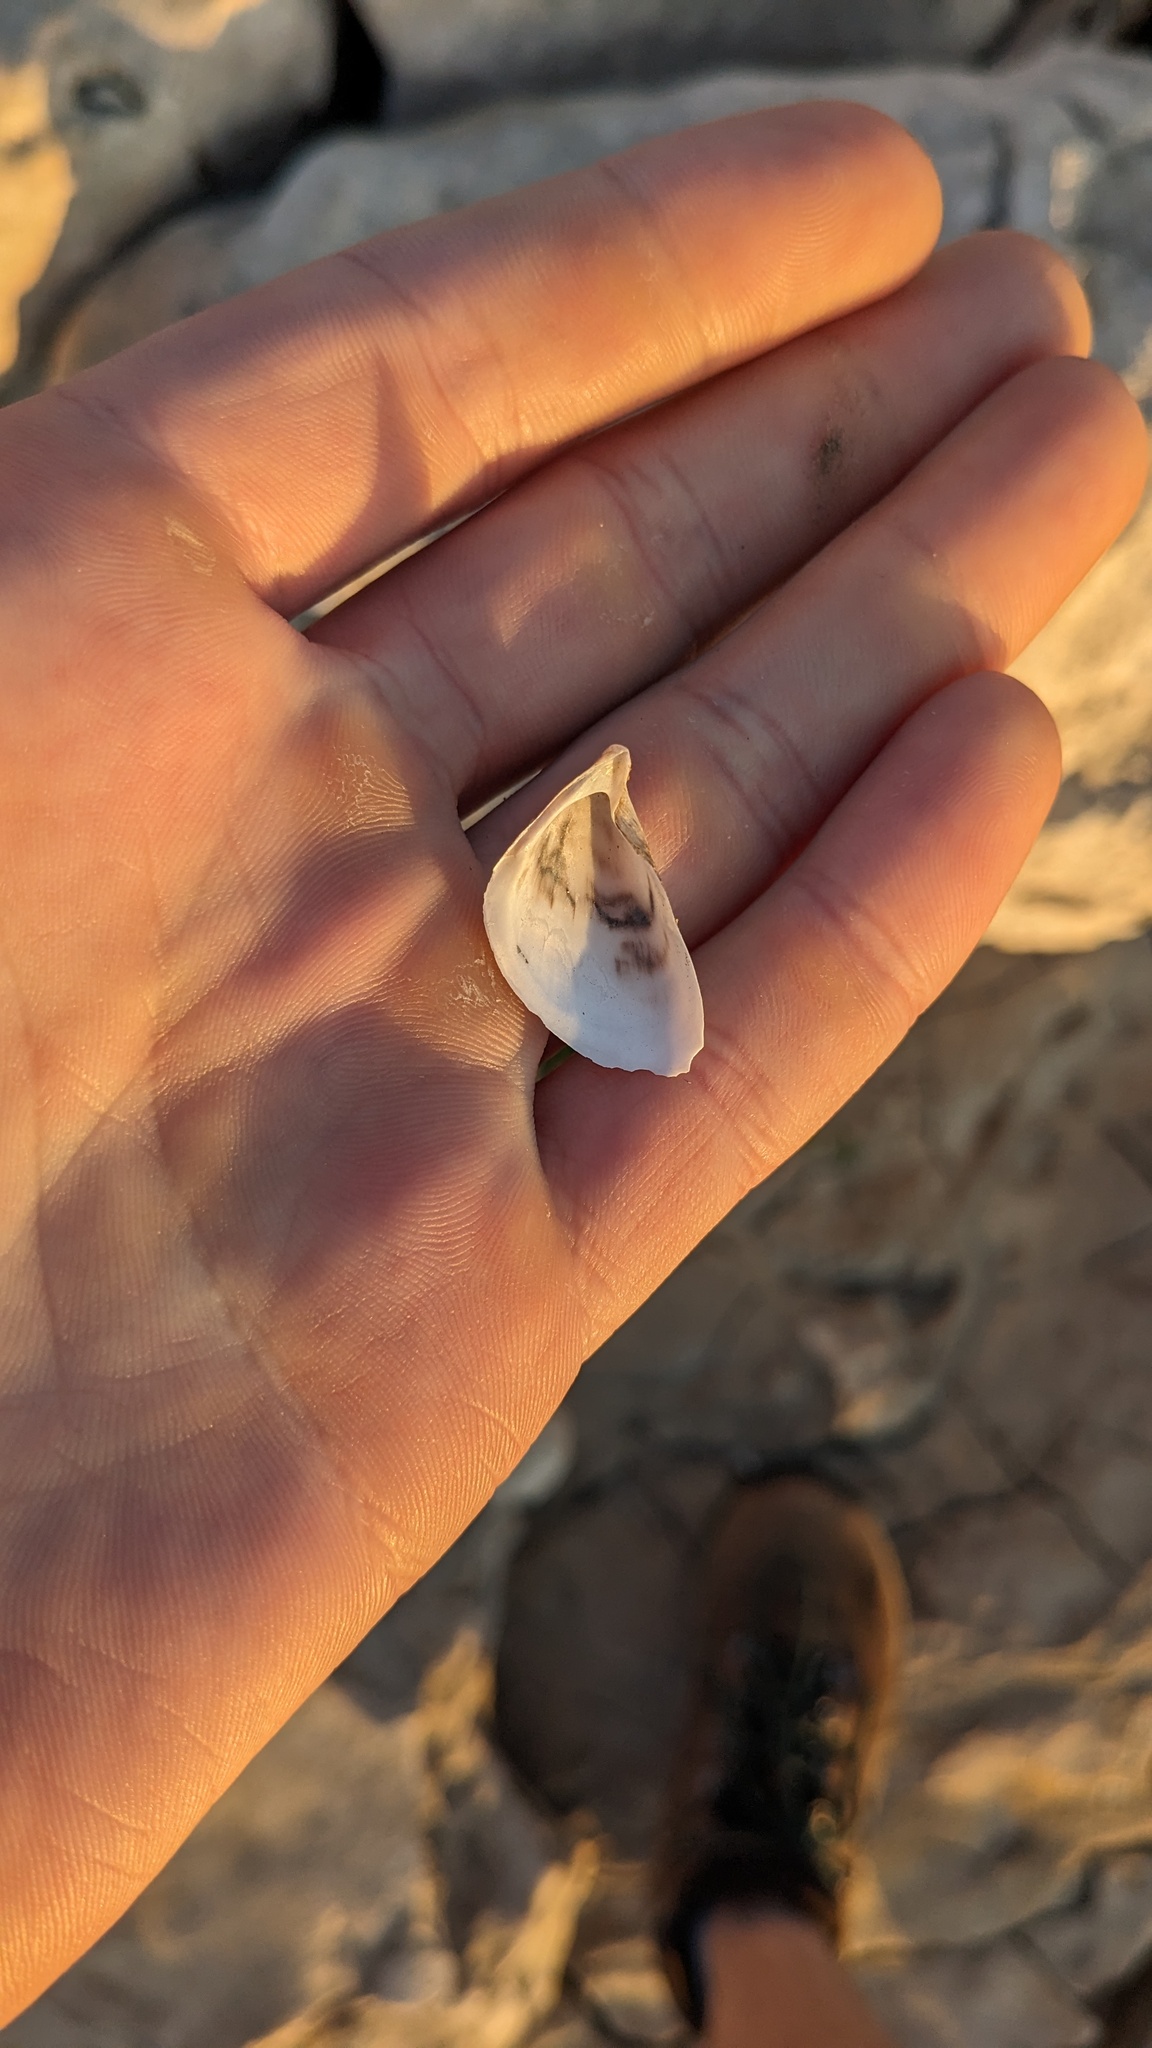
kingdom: Animalia
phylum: Mollusca
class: Bivalvia
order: Myida
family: Dreissenidae
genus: Dreissena
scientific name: Dreissena polymorpha
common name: Zebra mussel
